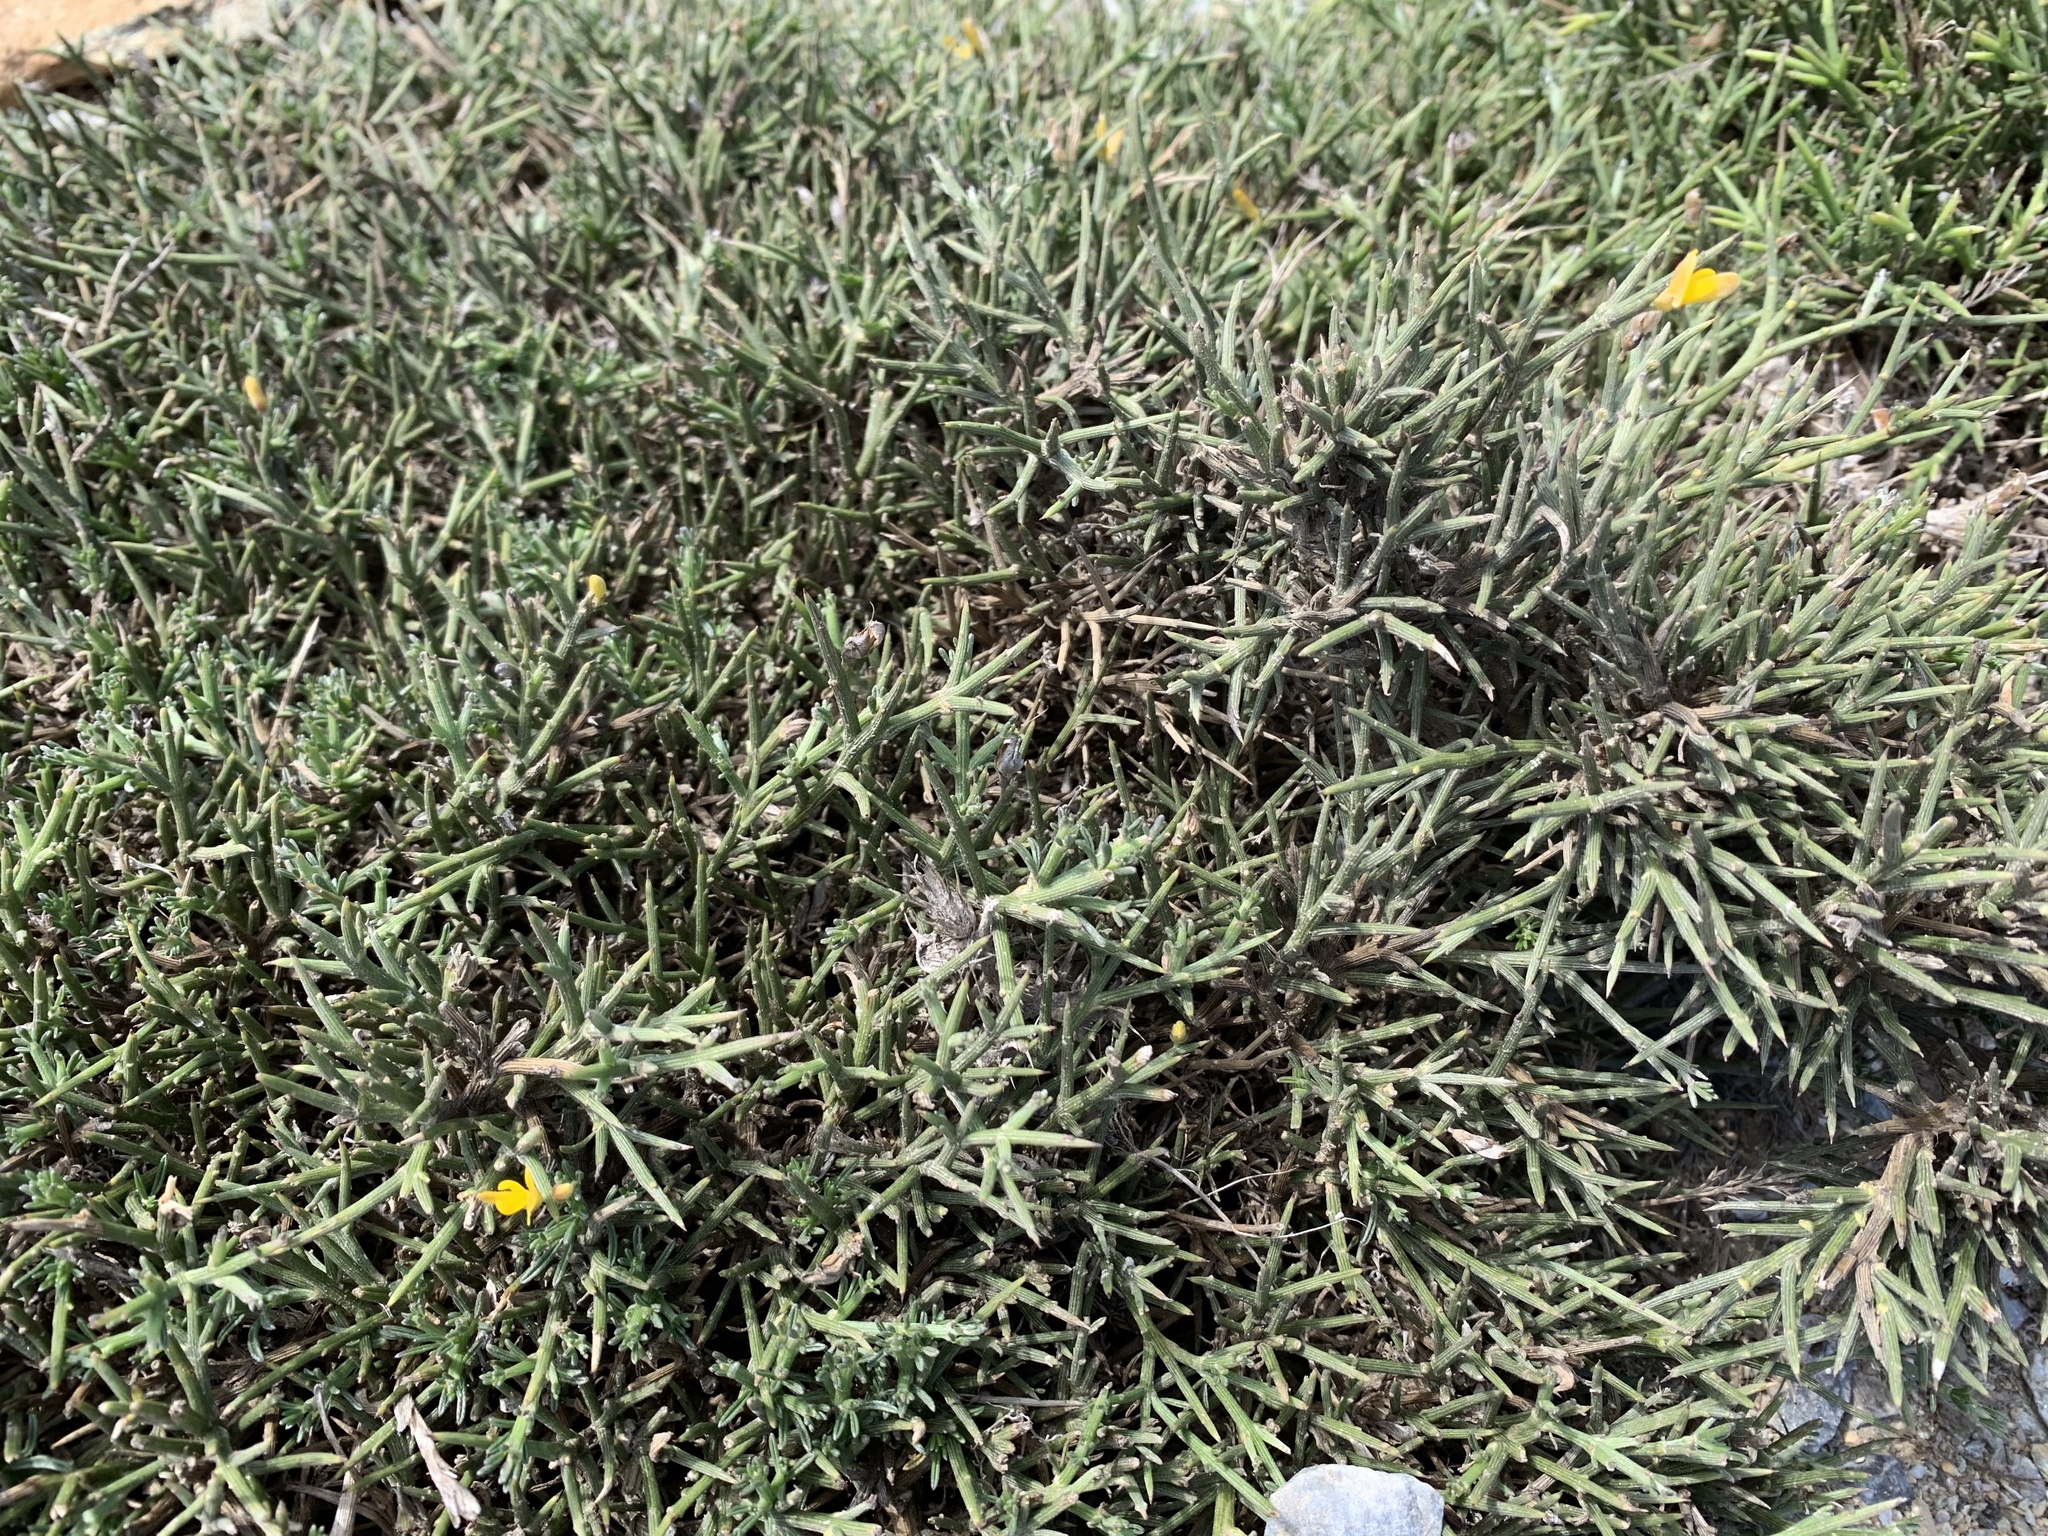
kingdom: Plantae
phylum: Tracheophyta
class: Magnoliopsida
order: Fabales
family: Fabaceae
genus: Genista
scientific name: Genista acanthoclada
